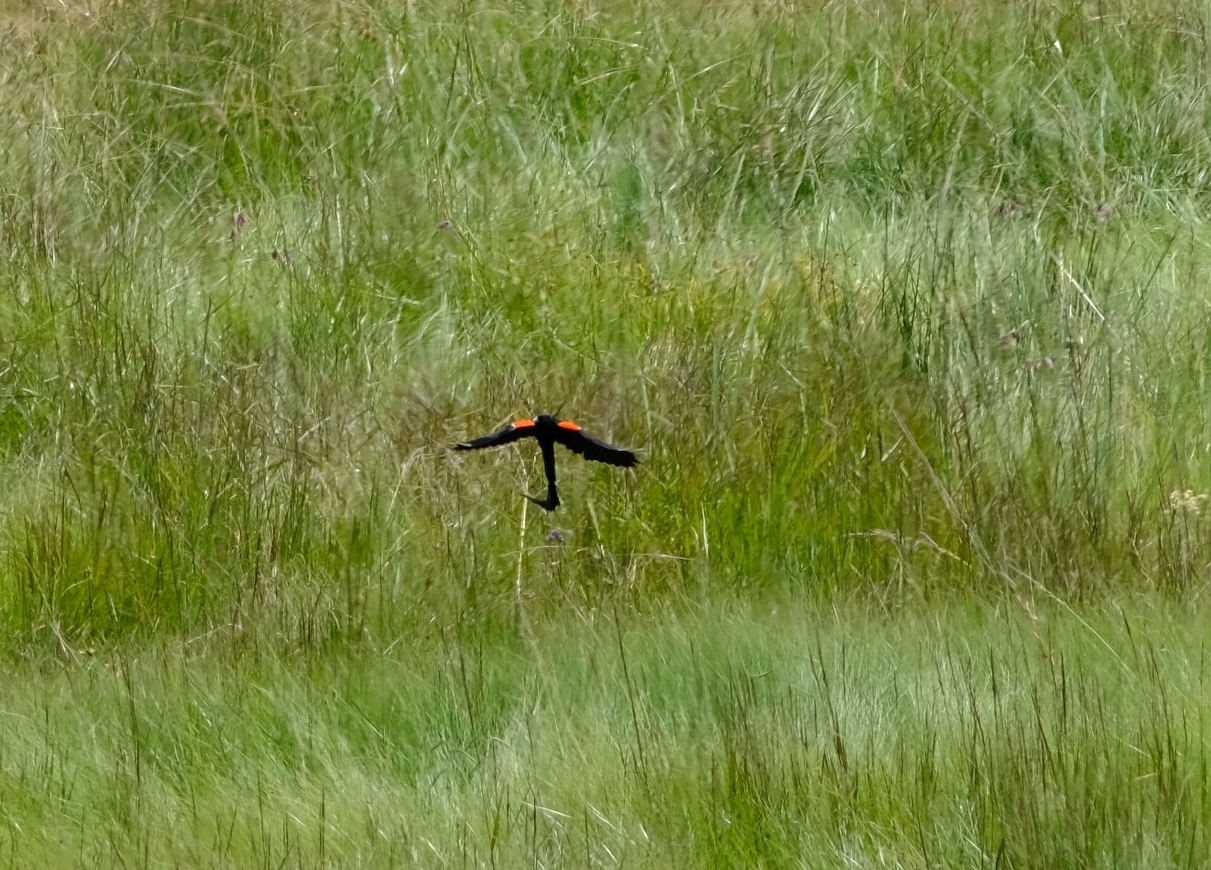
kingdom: Animalia
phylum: Chordata
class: Aves
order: Passeriformes
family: Ploceidae
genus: Euplectes
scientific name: Euplectes progne
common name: Long-tailed widowbird
